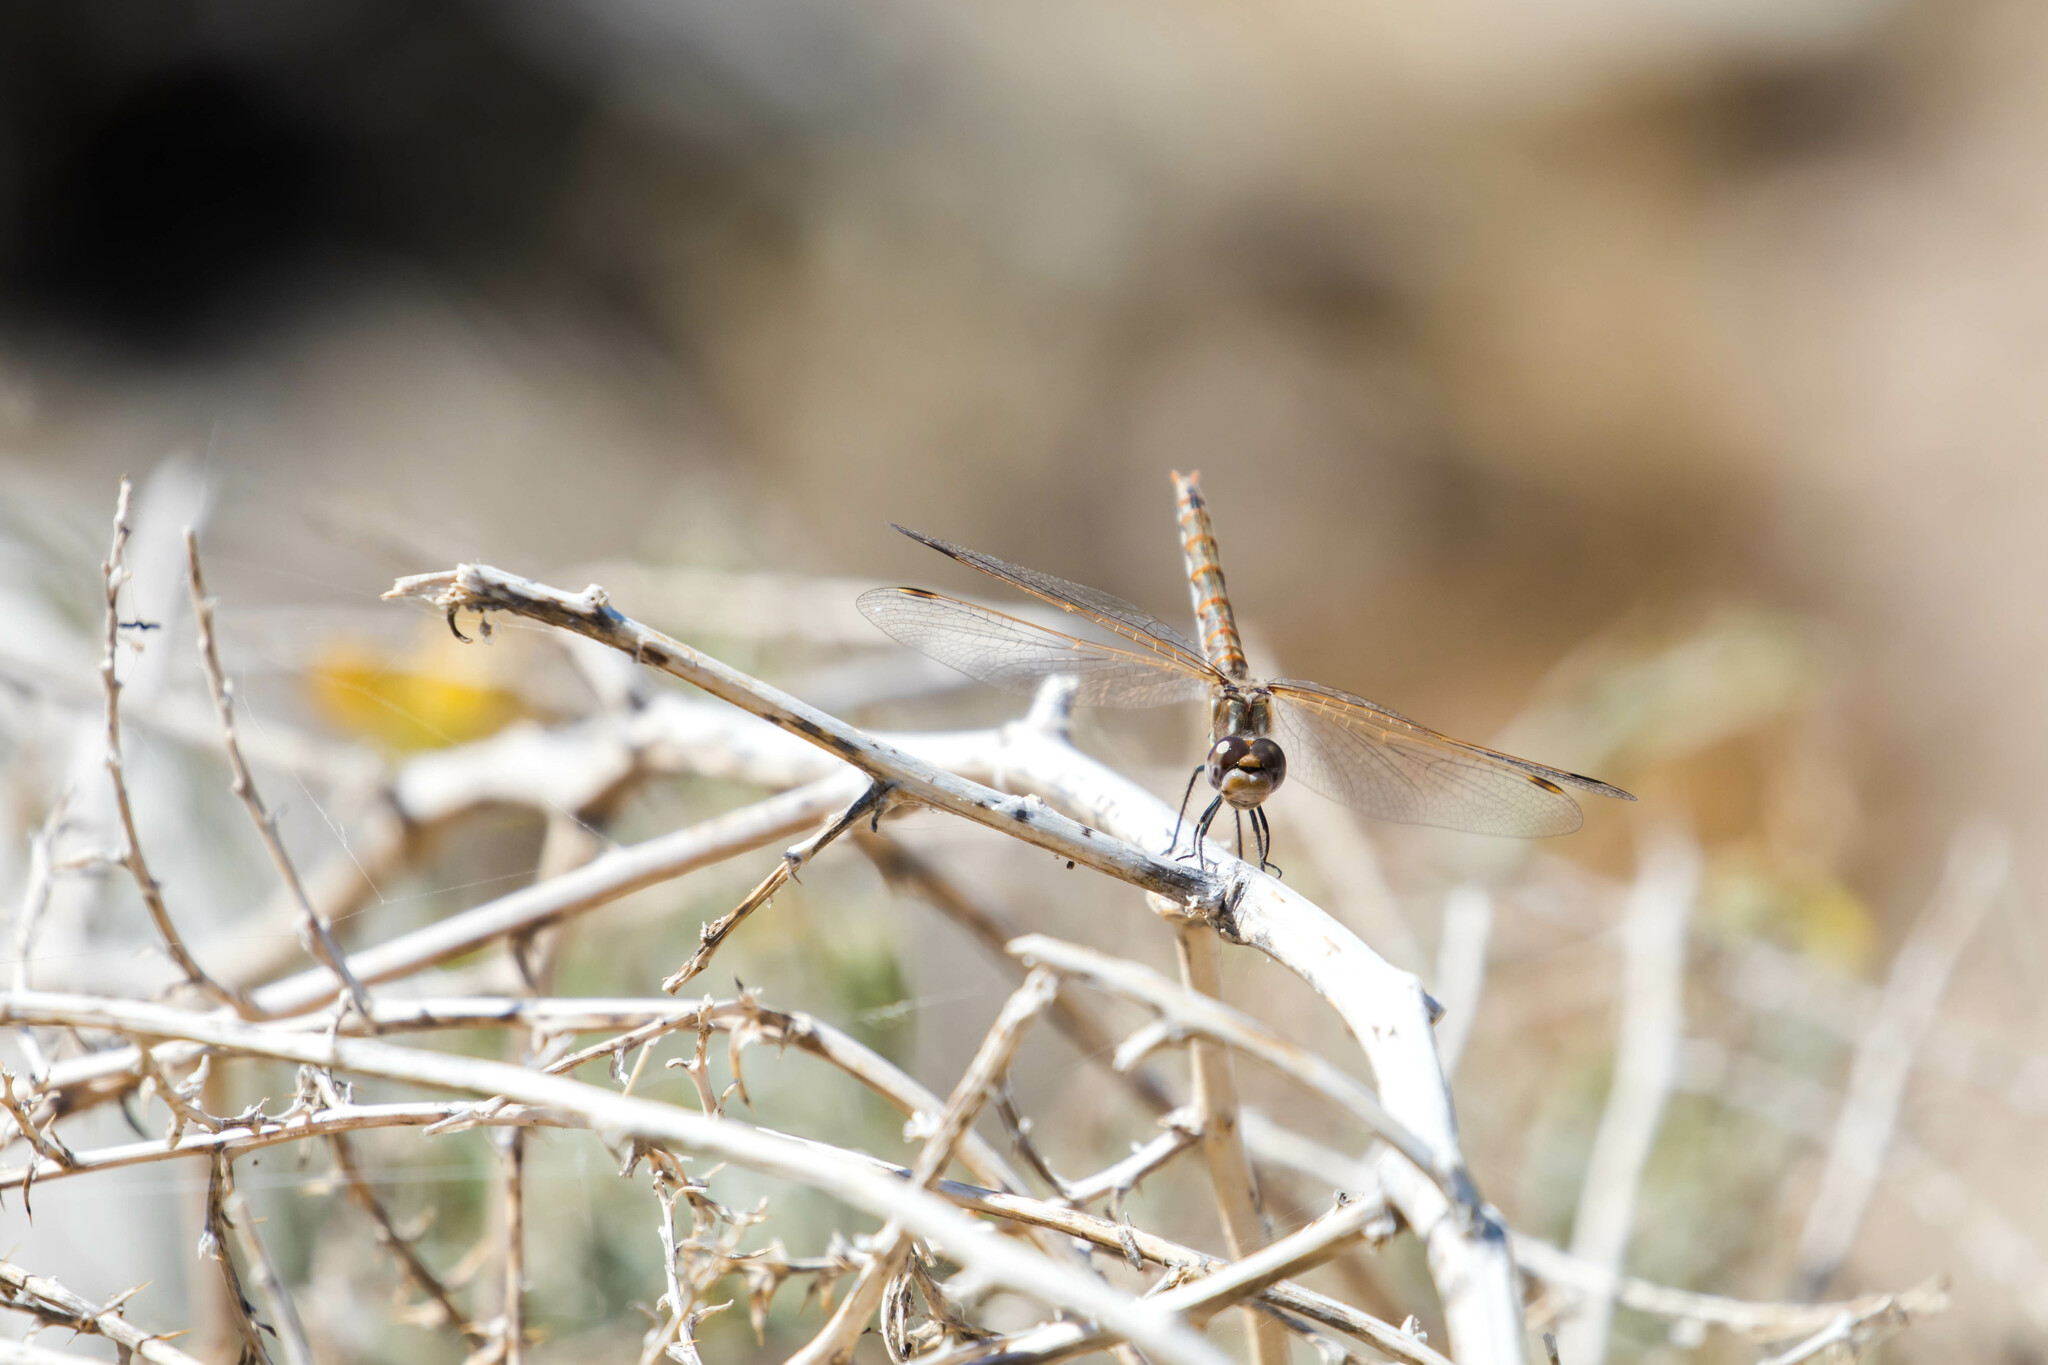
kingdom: Animalia
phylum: Arthropoda
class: Insecta
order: Odonata
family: Libellulidae
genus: Sympetrum
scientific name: Sympetrum corruptum
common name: Variegated meadowhawk
